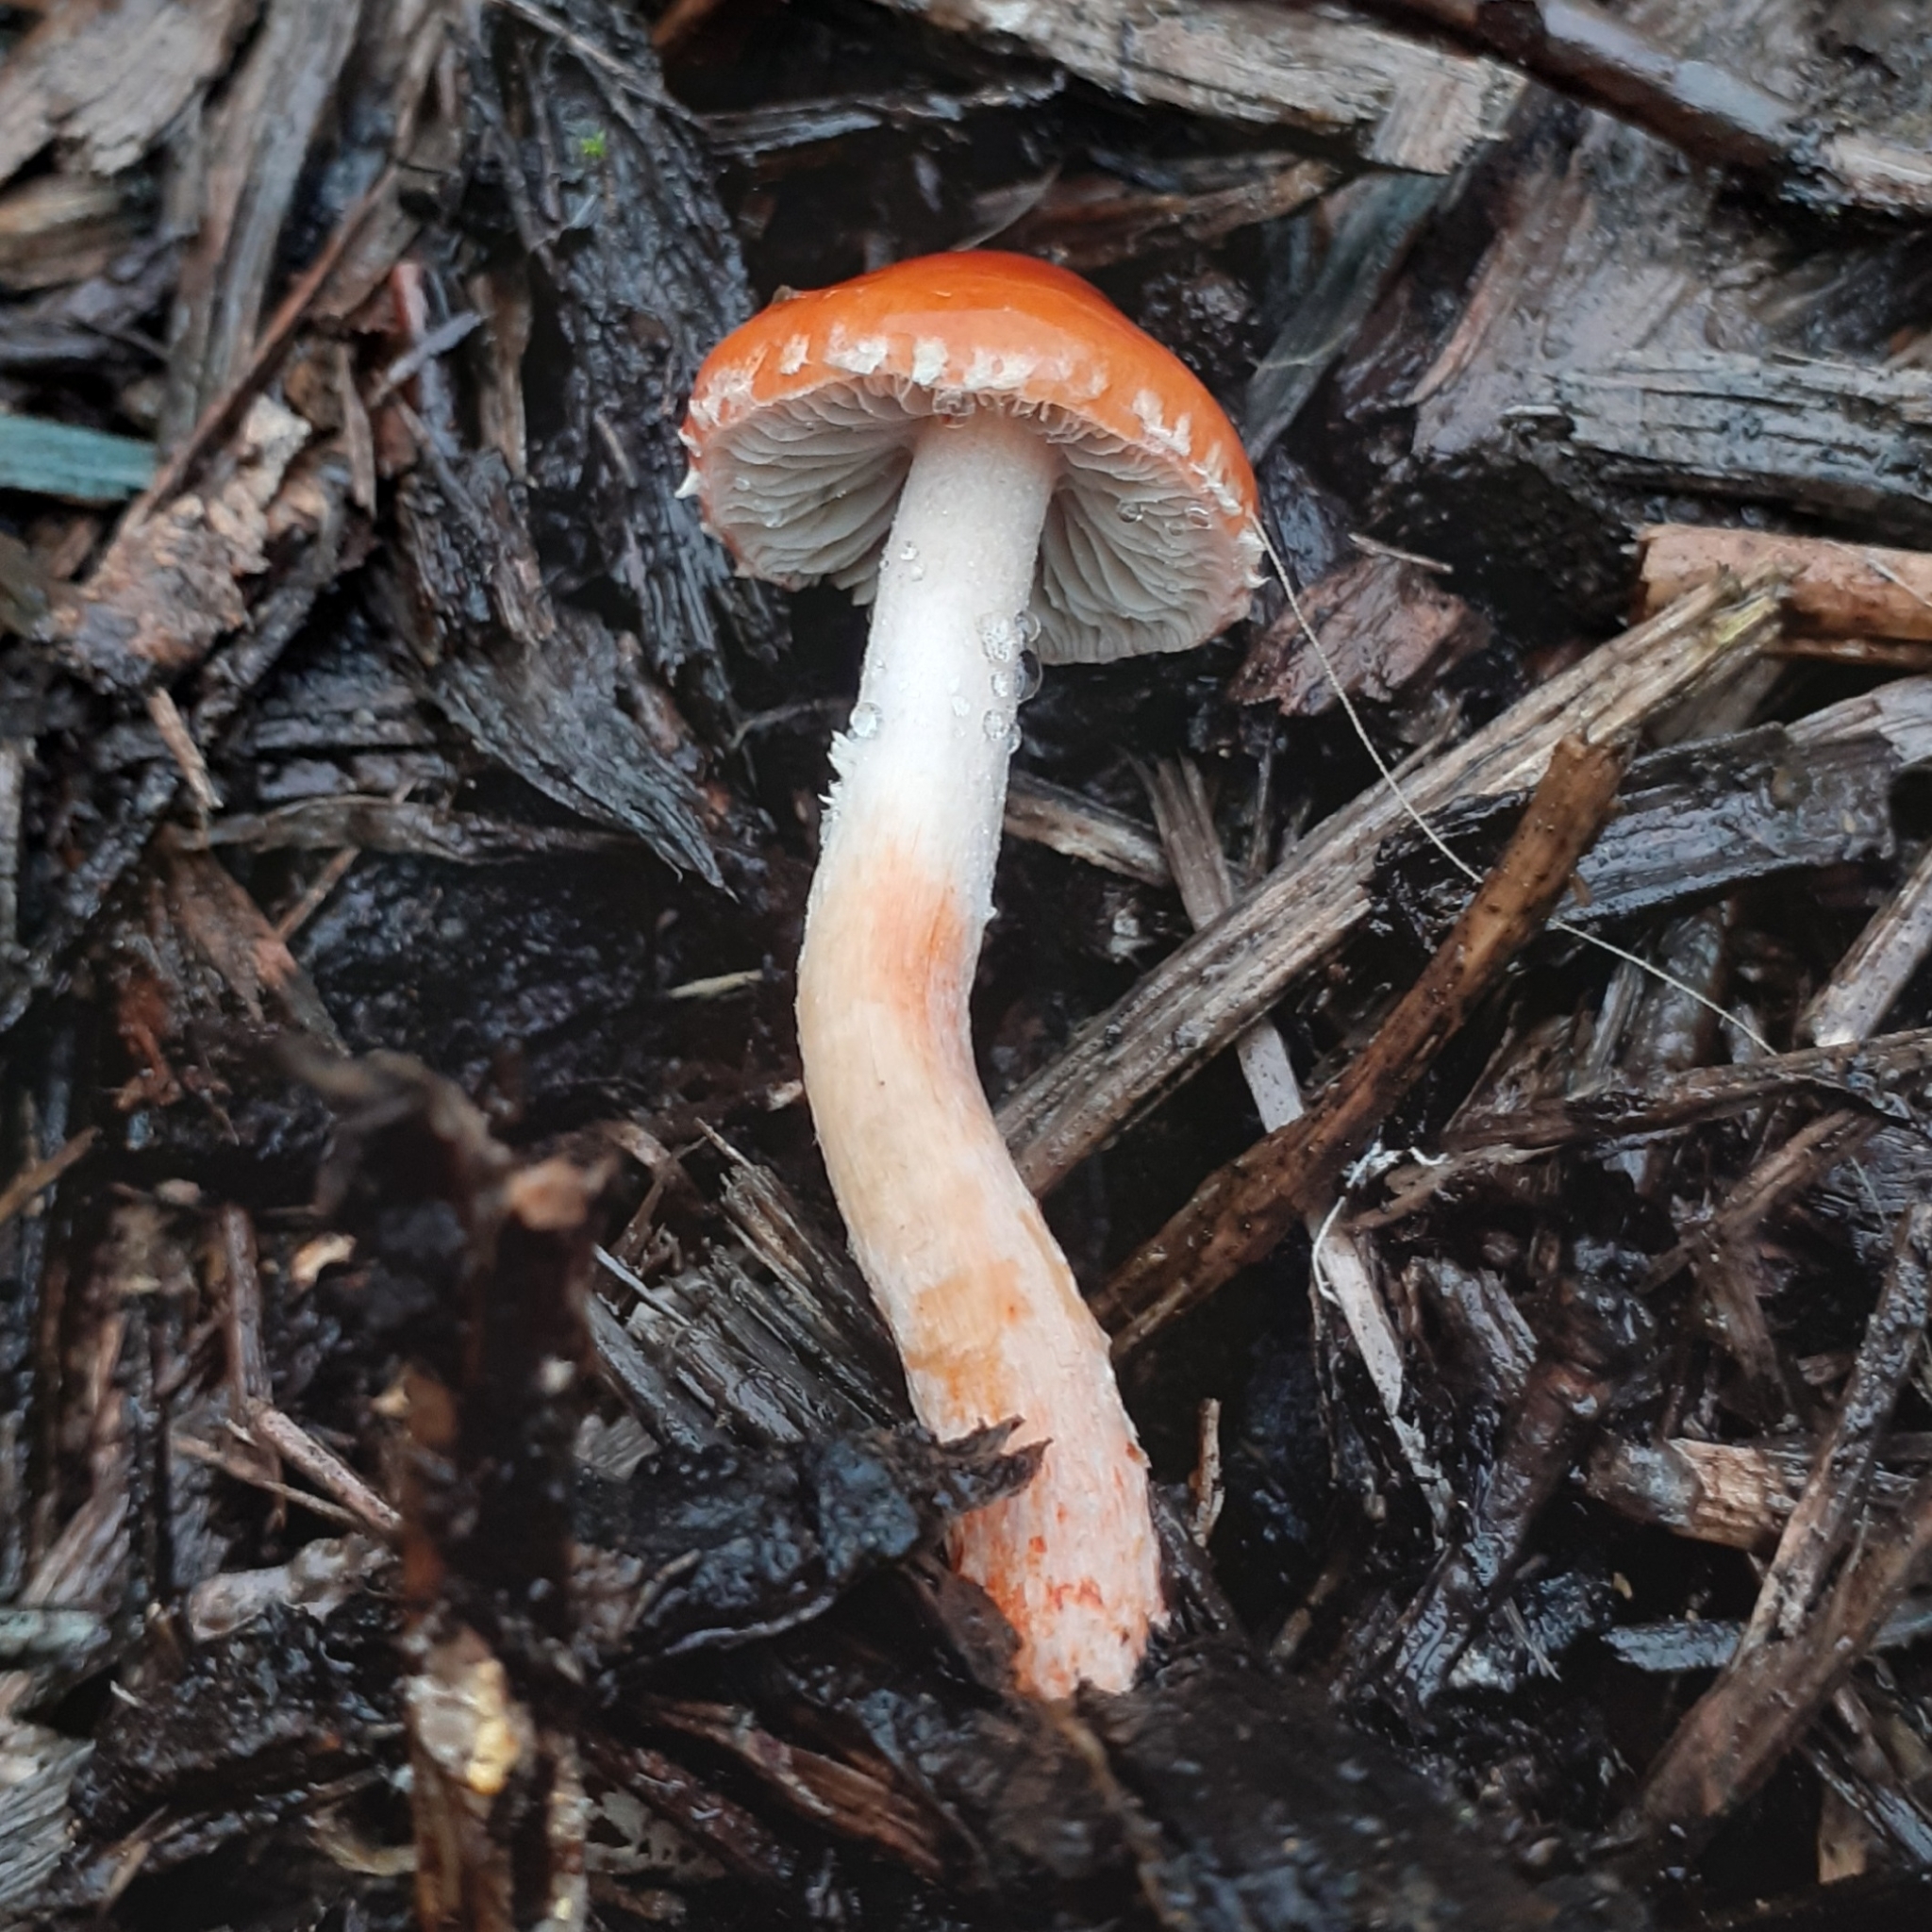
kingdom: Fungi
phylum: Basidiomycota
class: Agaricomycetes
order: Agaricales
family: Strophariaceae
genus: Leratiomyces
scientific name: Leratiomyces ceres
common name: Redlead roundhead
